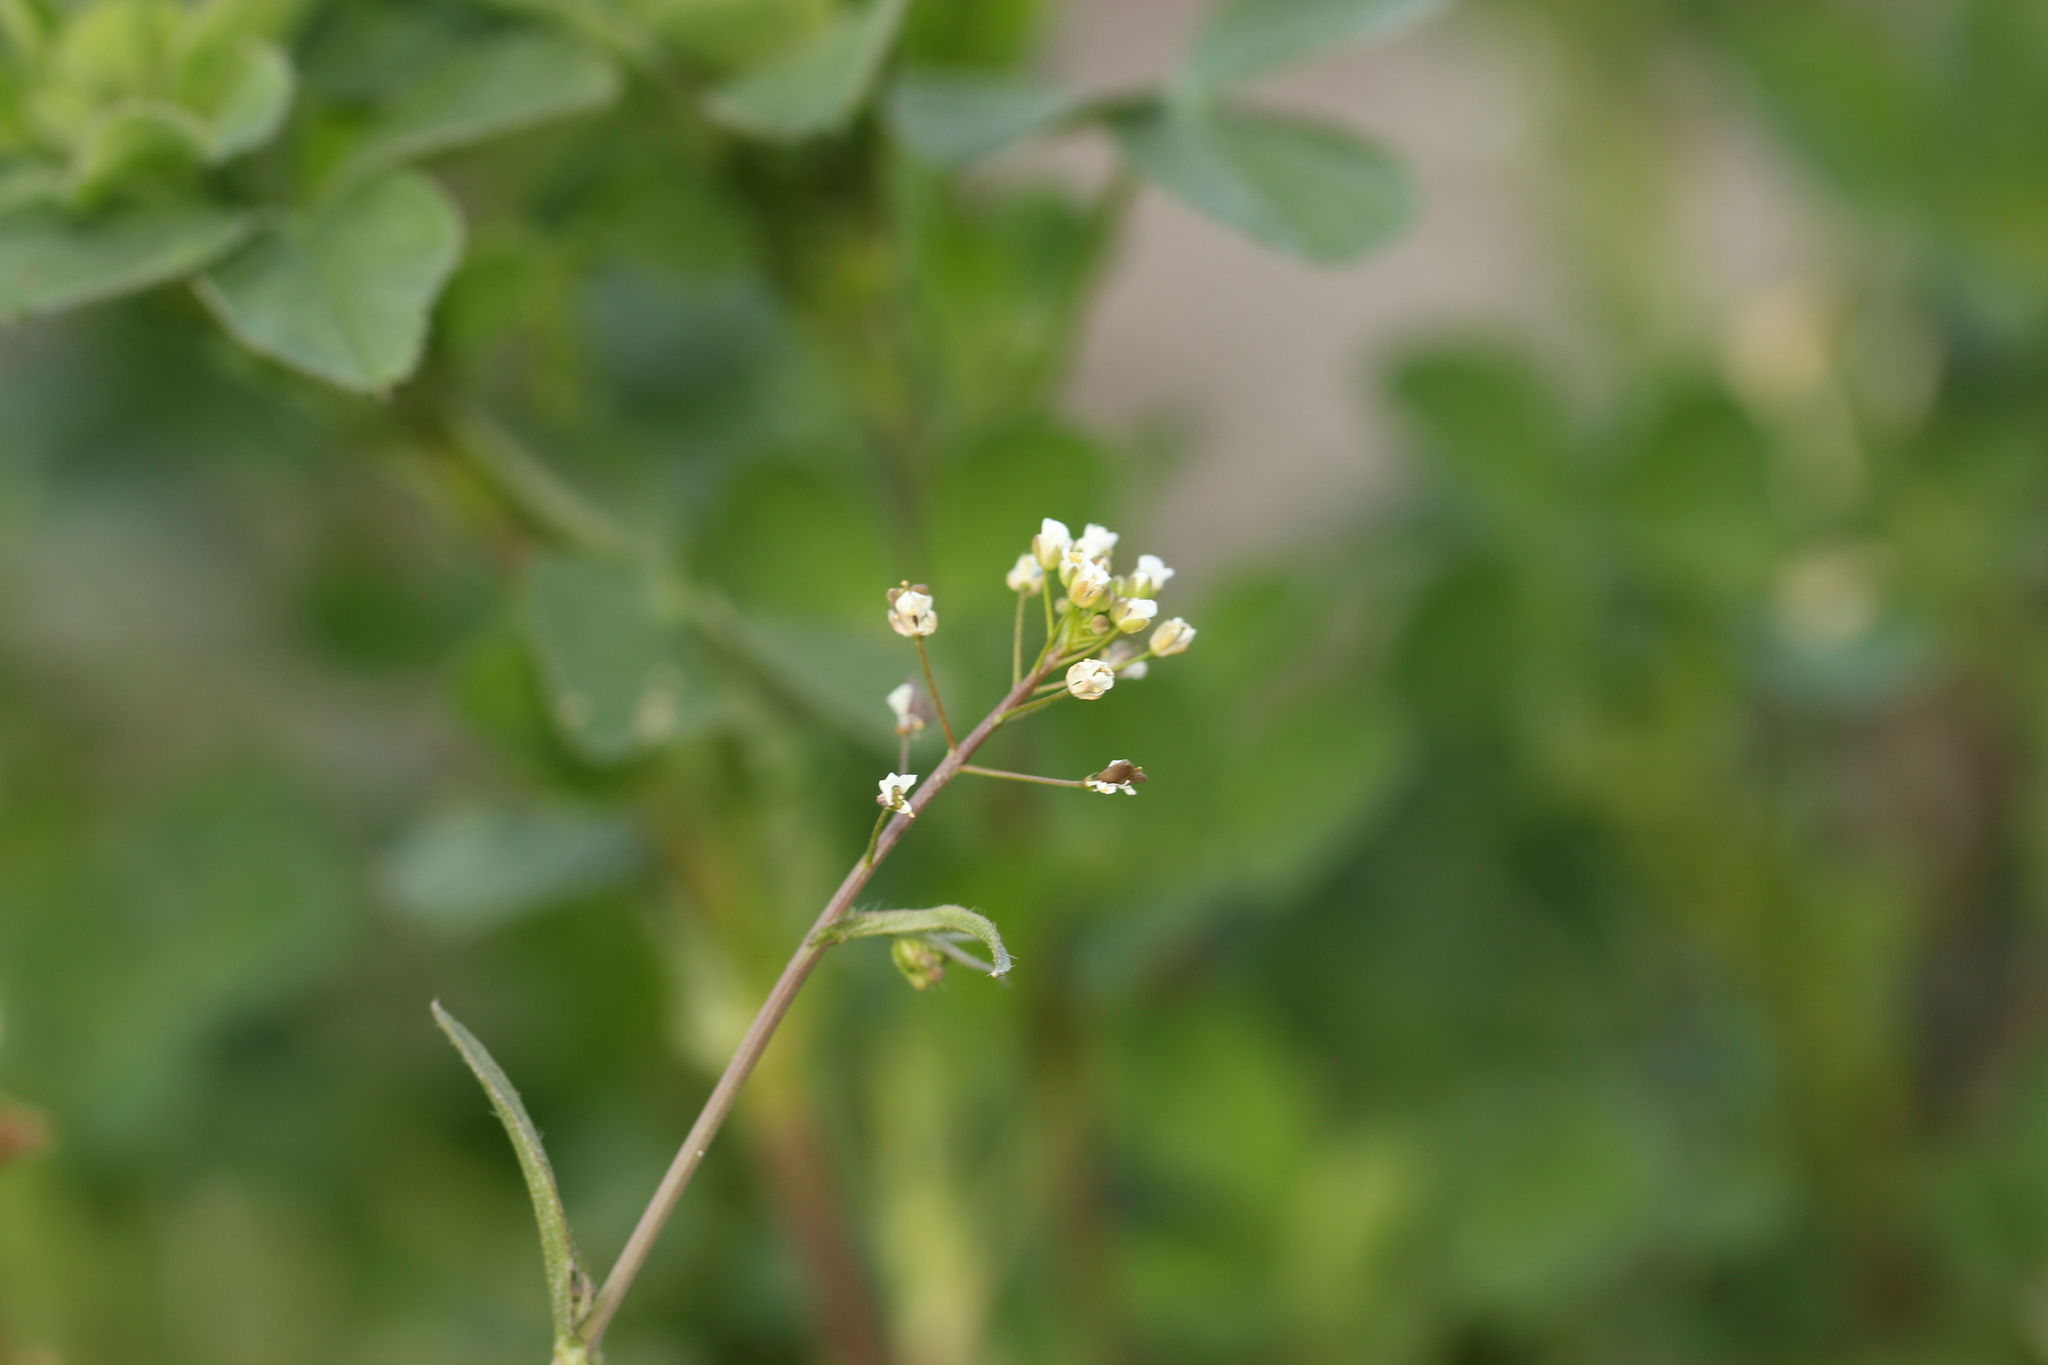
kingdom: Plantae
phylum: Tracheophyta
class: Magnoliopsida
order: Brassicales
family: Brassicaceae
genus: Capsella
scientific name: Capsella bursa-pastoris
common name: Shepherd's purse
